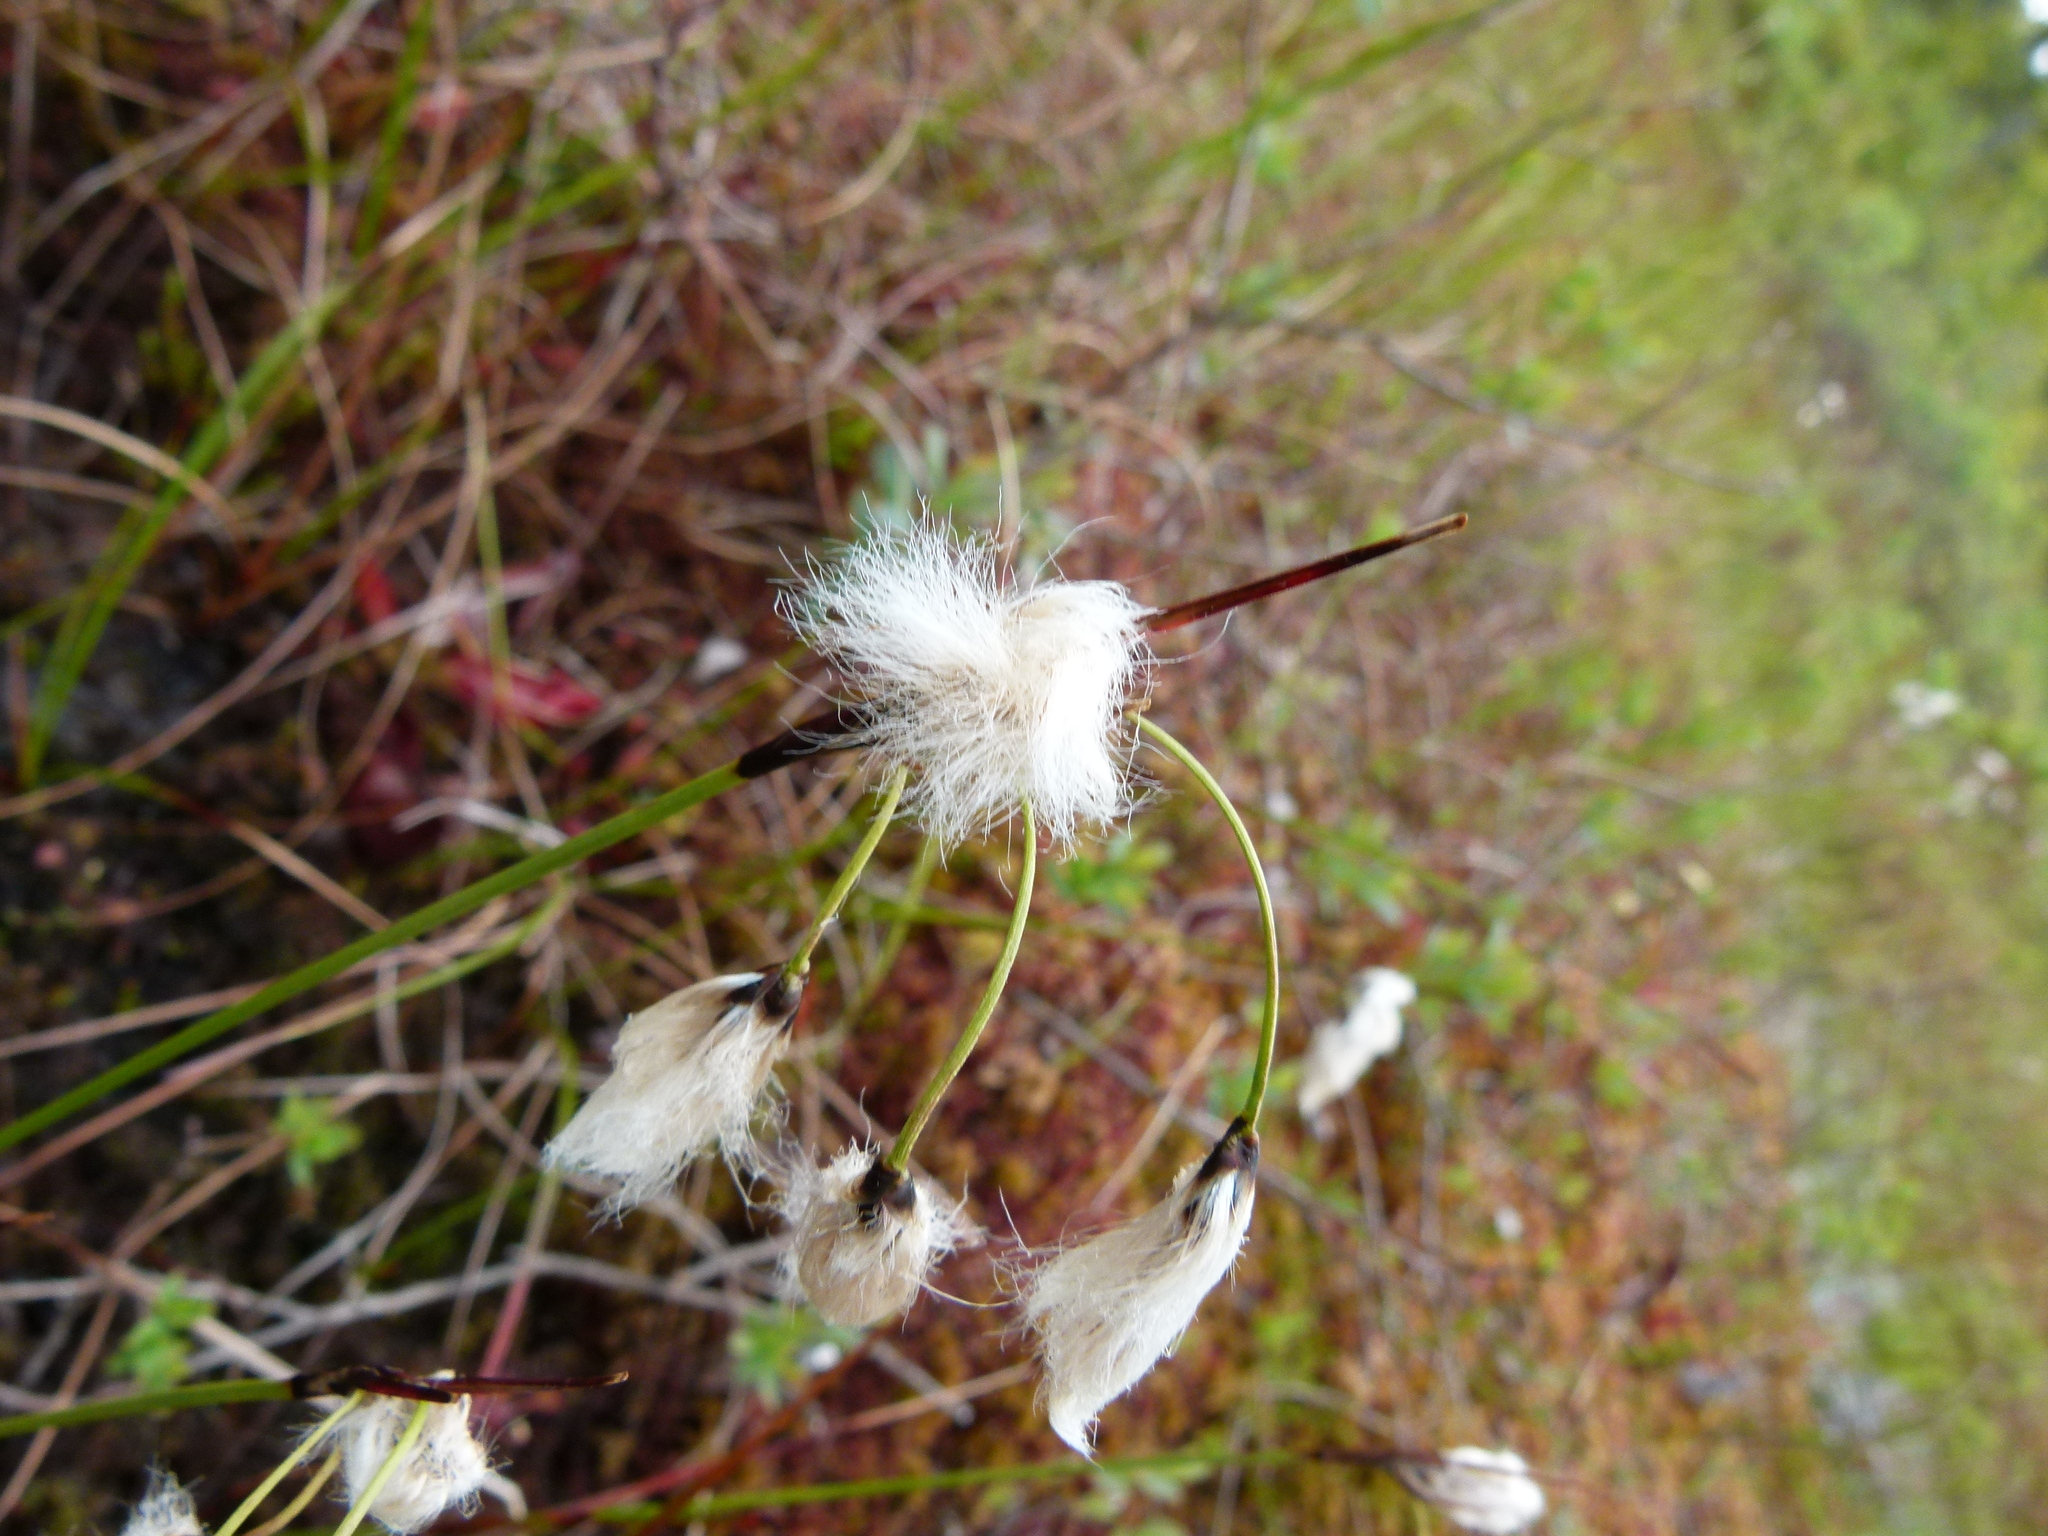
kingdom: Plantae
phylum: Tracheophyta
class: Liliopsida
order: Poales
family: Cyperaceae
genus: Eriophorum
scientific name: Eriophorum angustifolium
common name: Common cottongrass
